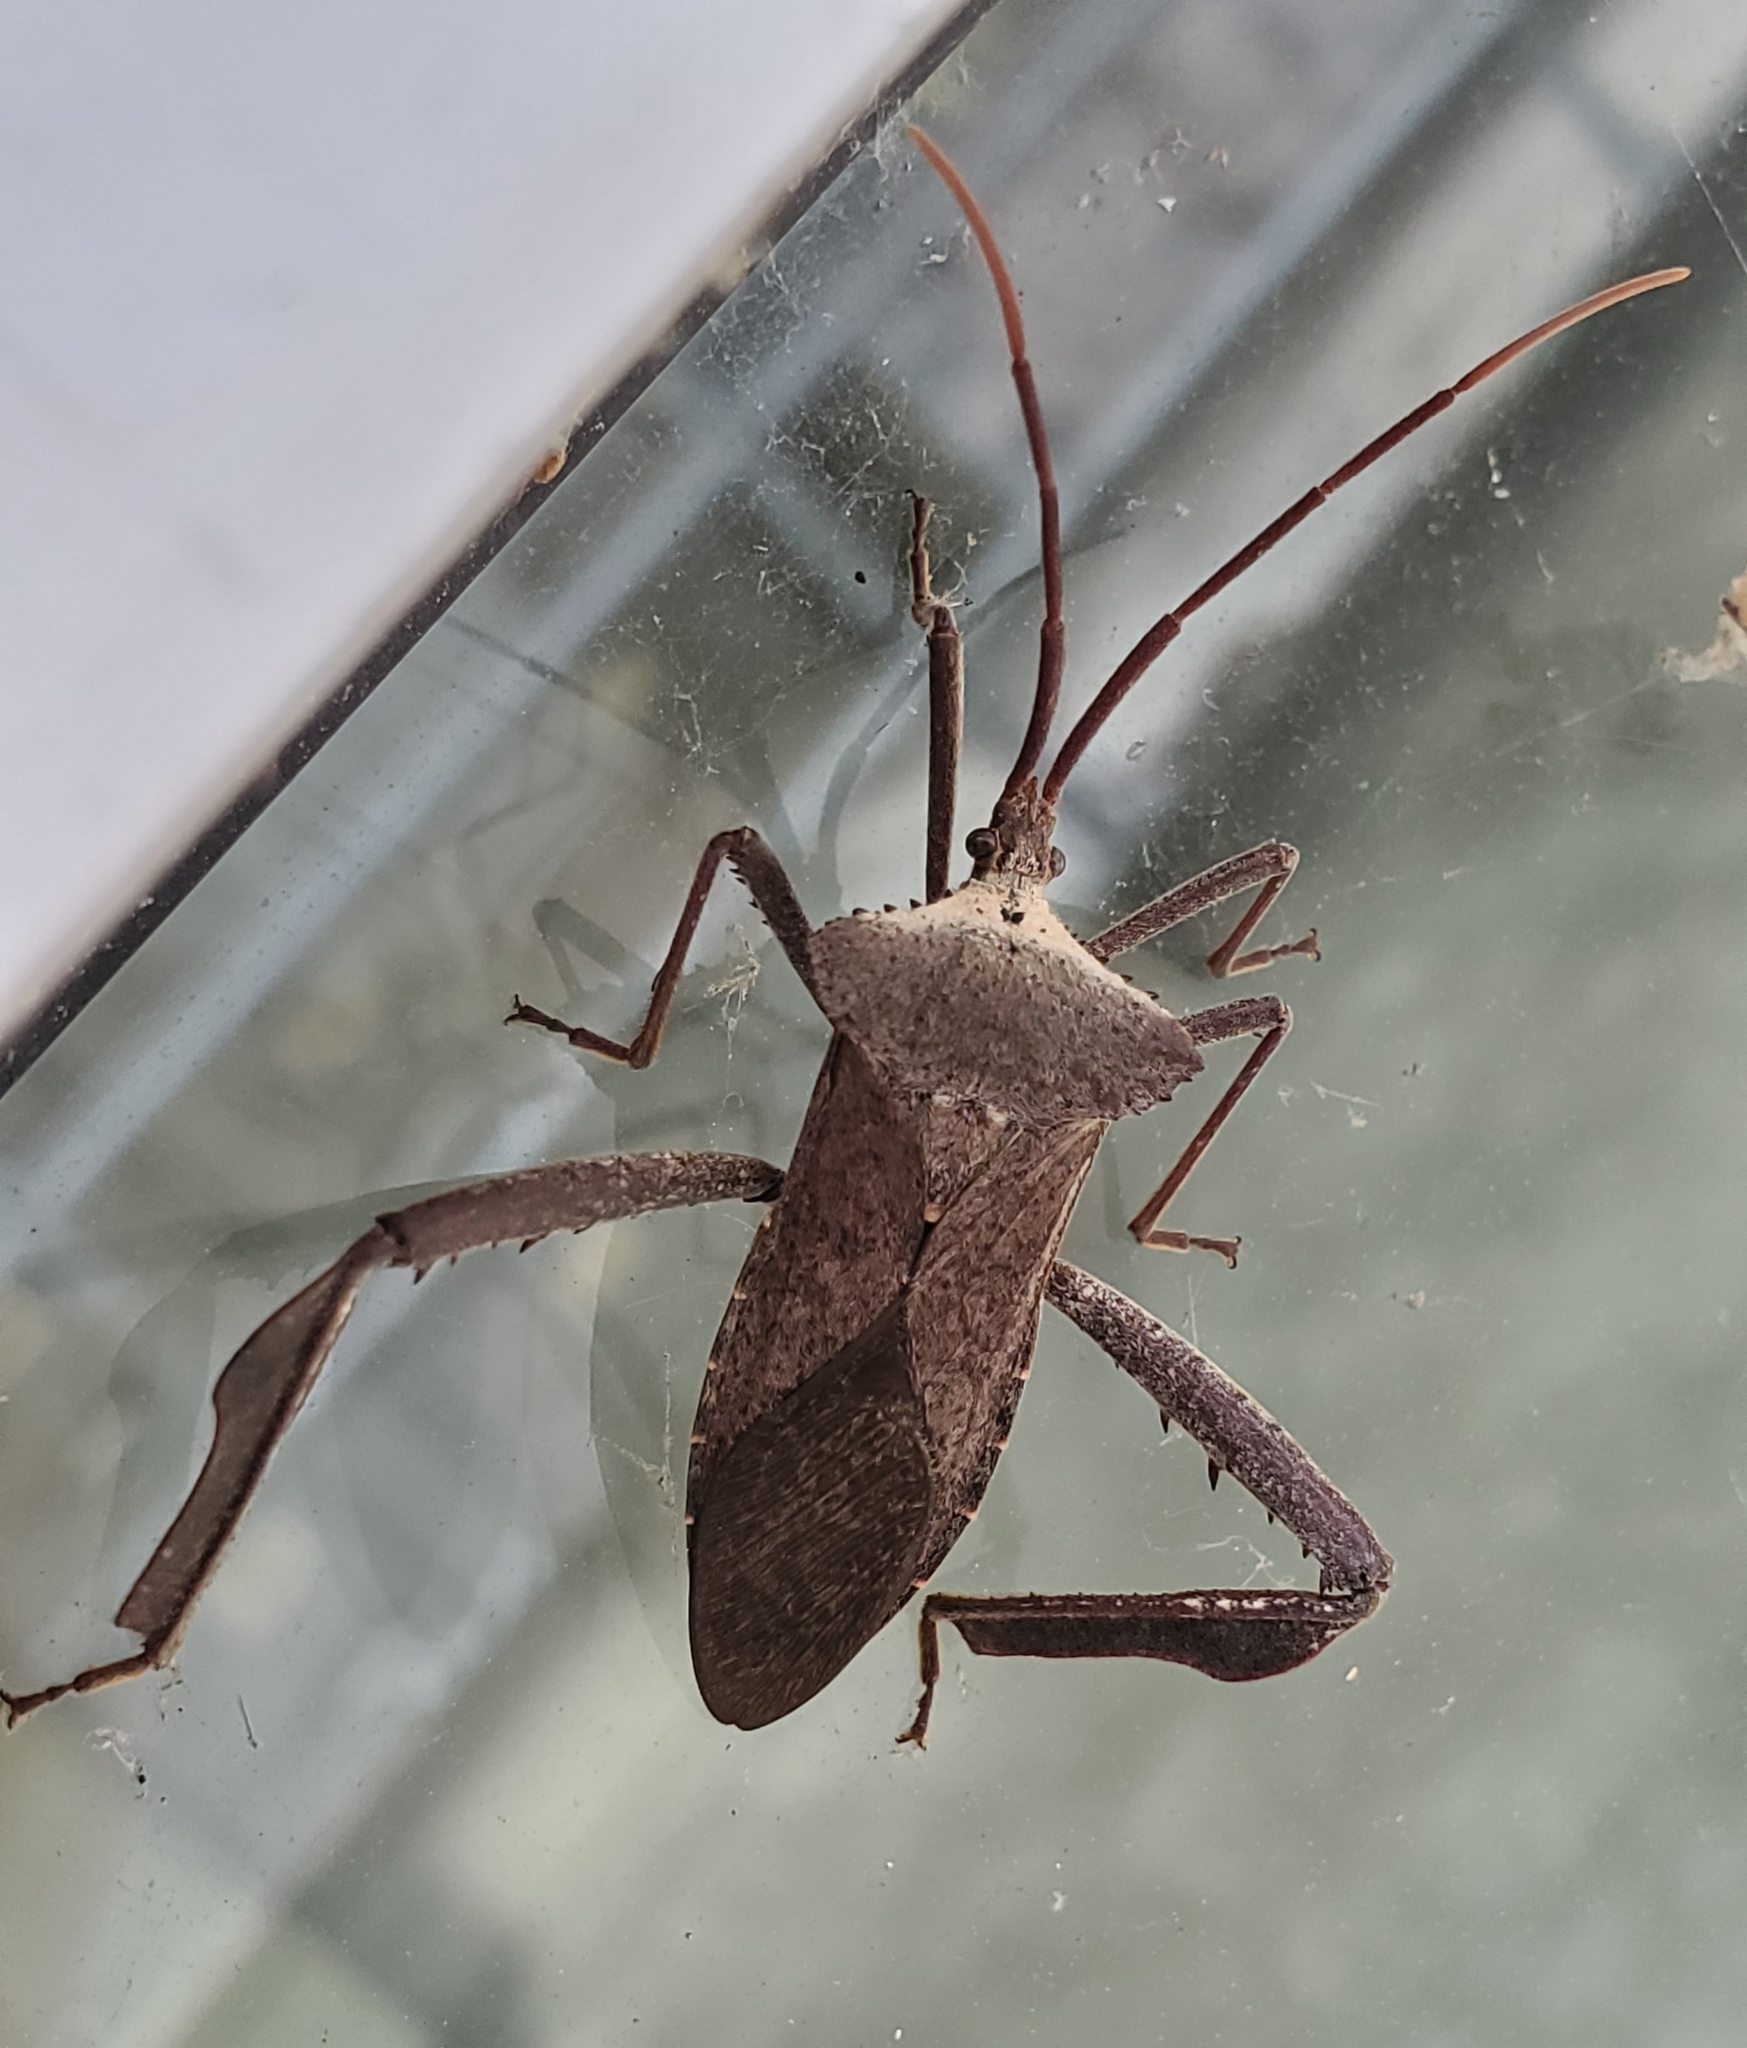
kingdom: Animalia
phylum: Arthropoda
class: Insecta
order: Hemiptera
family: Coreidae
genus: Acanthocephala
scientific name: Acanthocephala declivis
